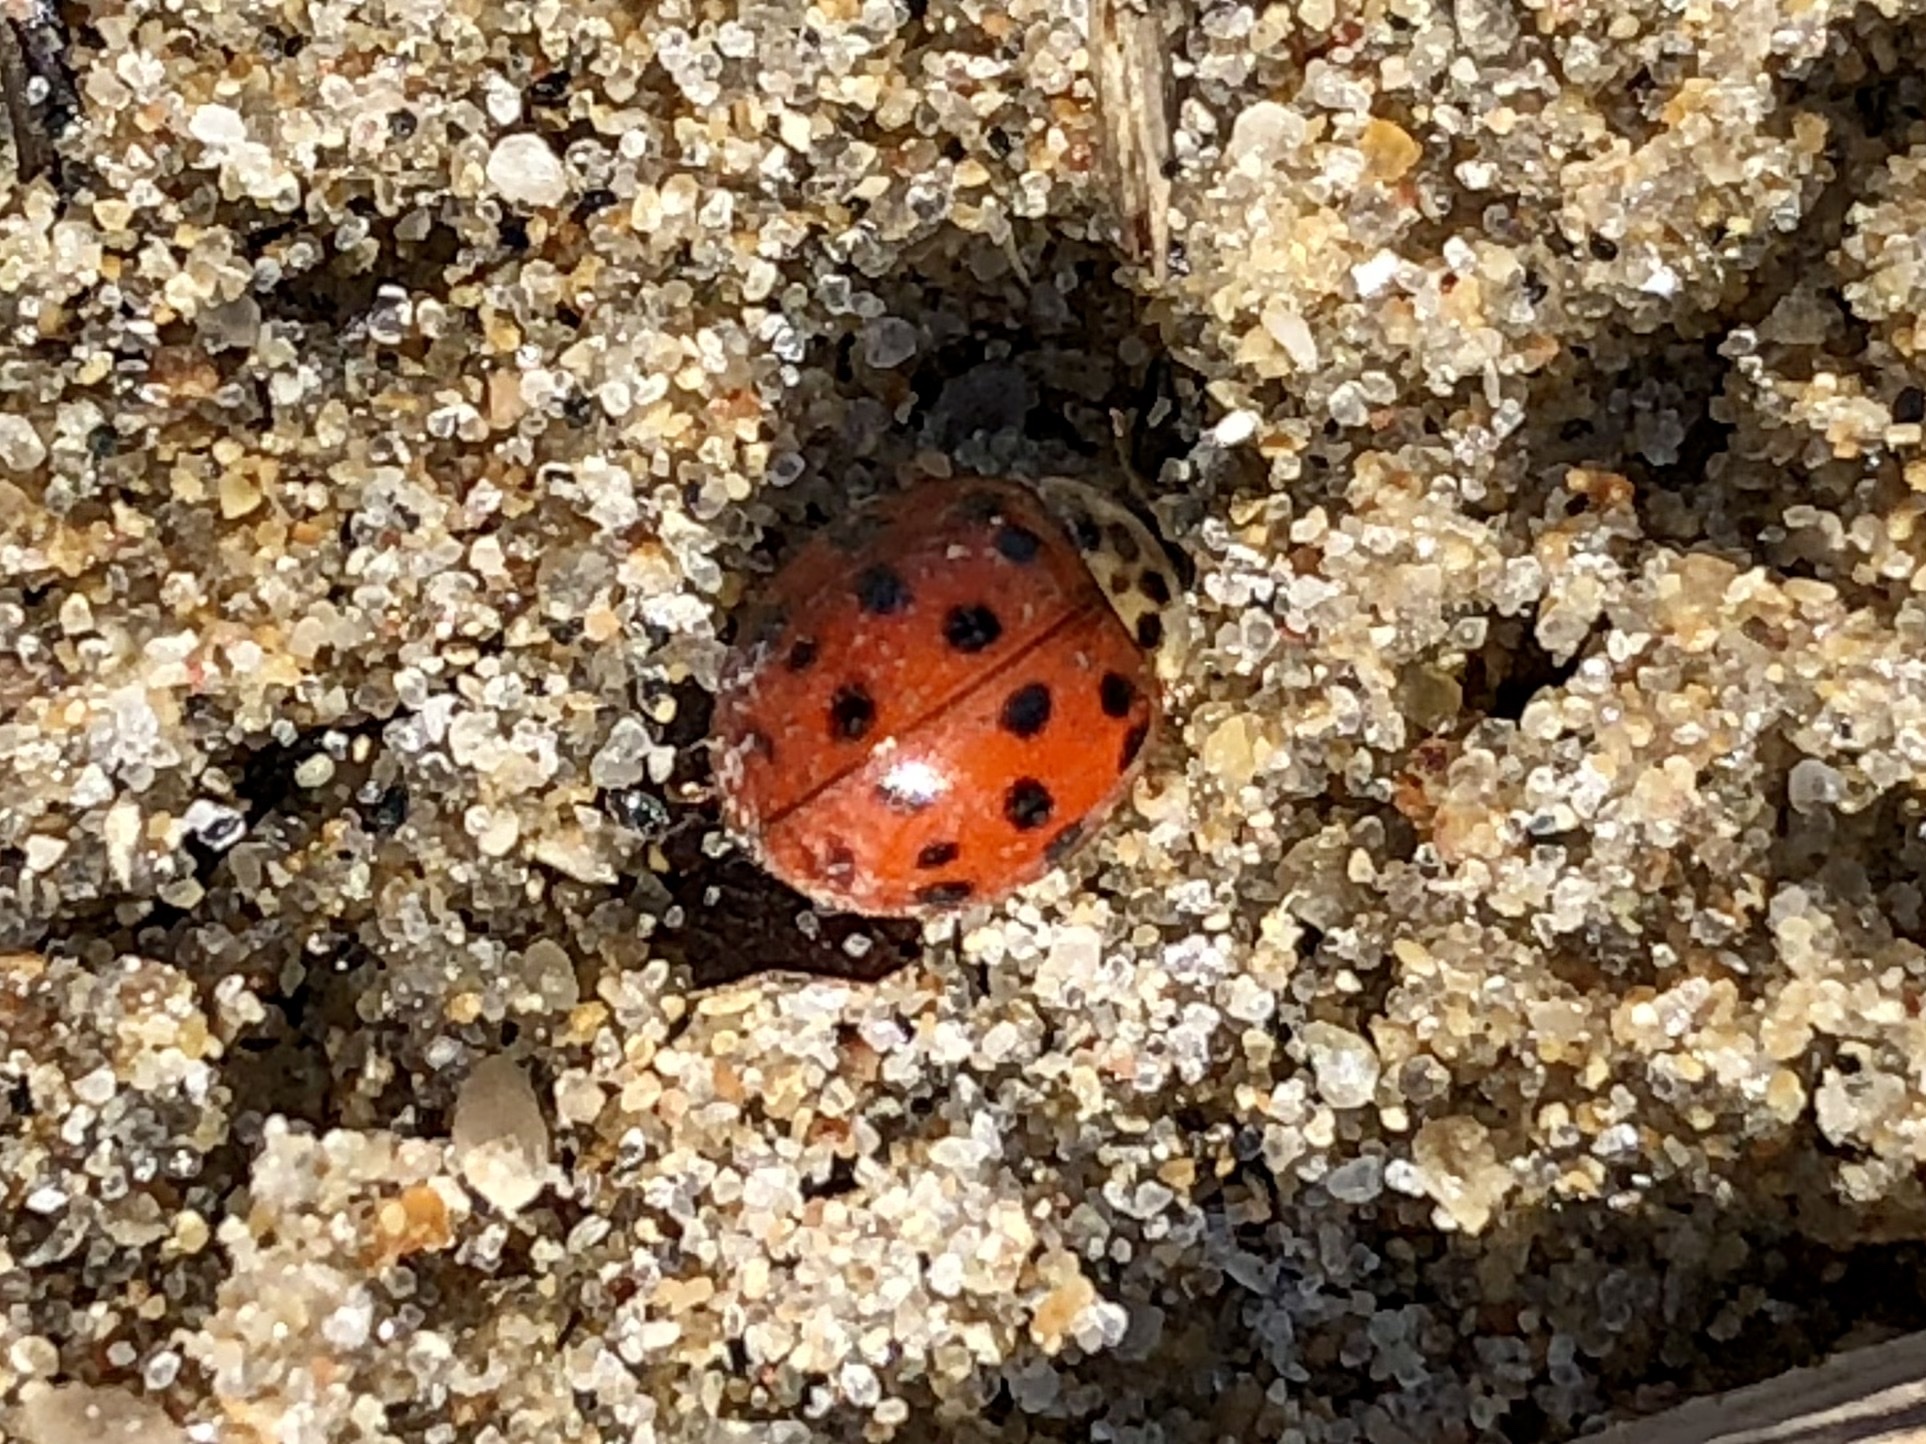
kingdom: Animalia
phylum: Arthropoda
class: Insecta
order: Coleoptera
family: Coccinellidae
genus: Harmonia
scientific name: Harmonia axyridis
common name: Harlequin ladybird
